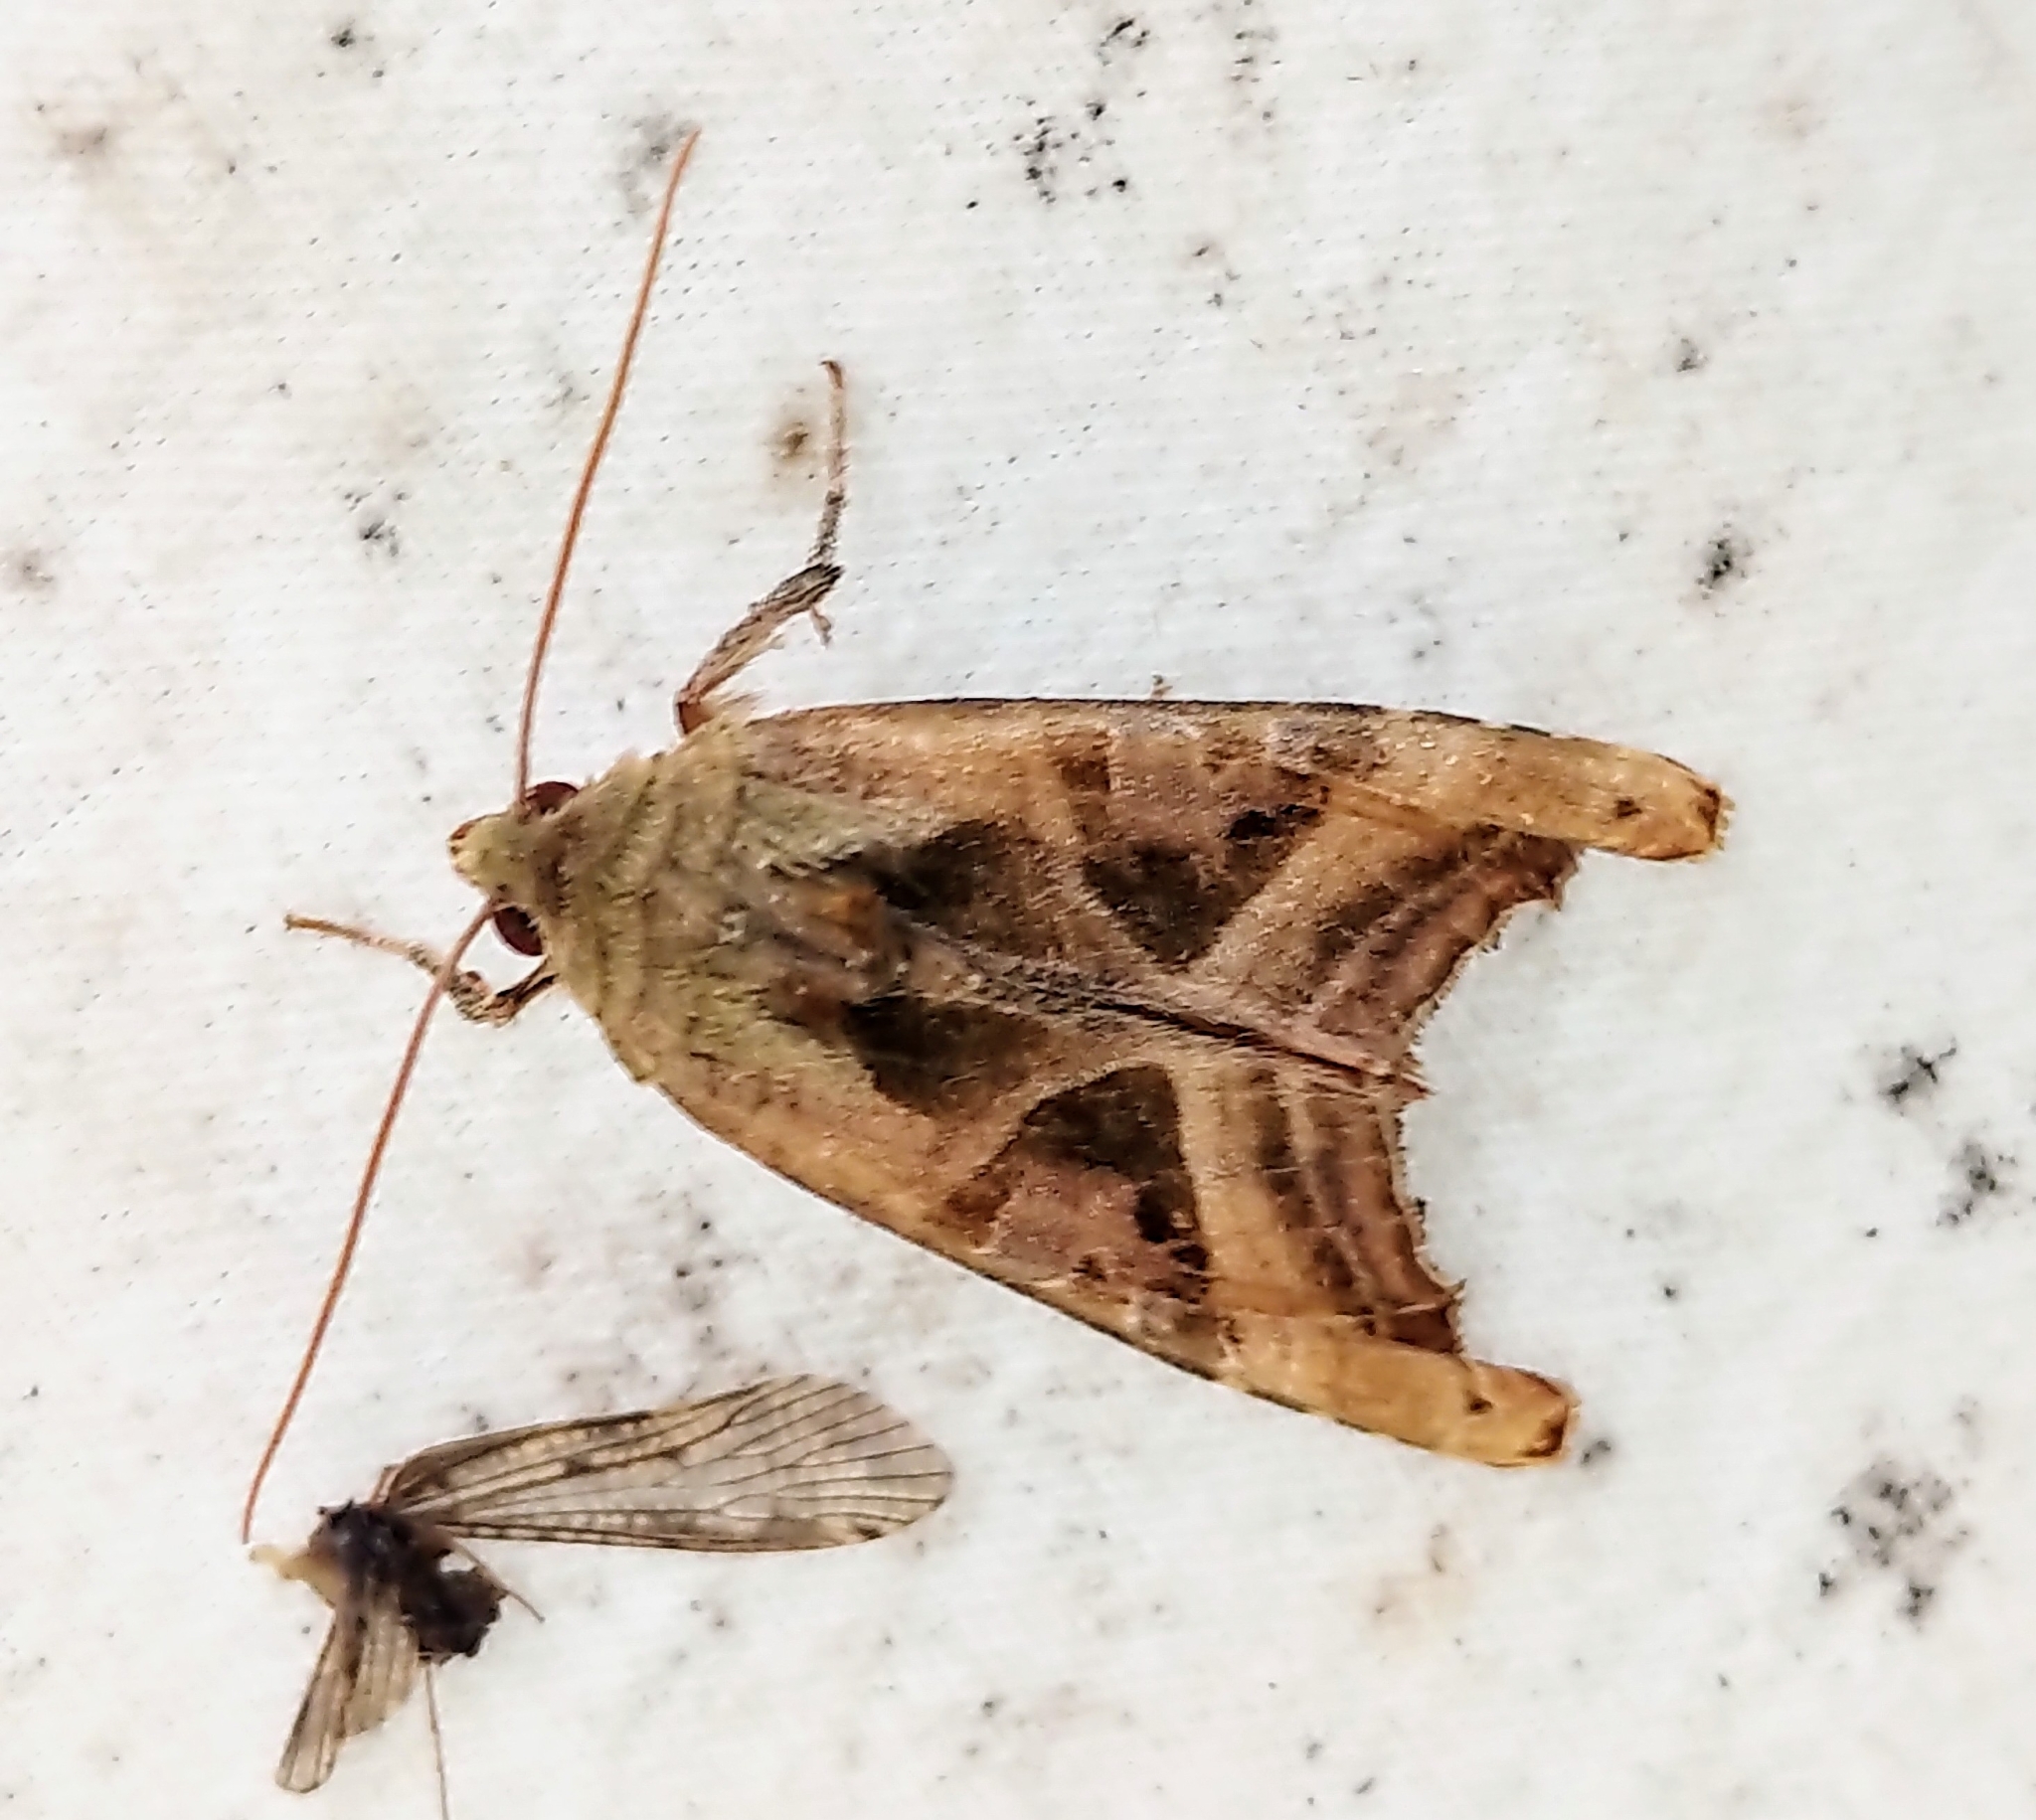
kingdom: Animalia
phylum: Arthropoda
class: Insecta
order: Lepidoptera
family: Noctuidae
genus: Phlogophora
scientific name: Phlogophora iris
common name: Olive angle shades
